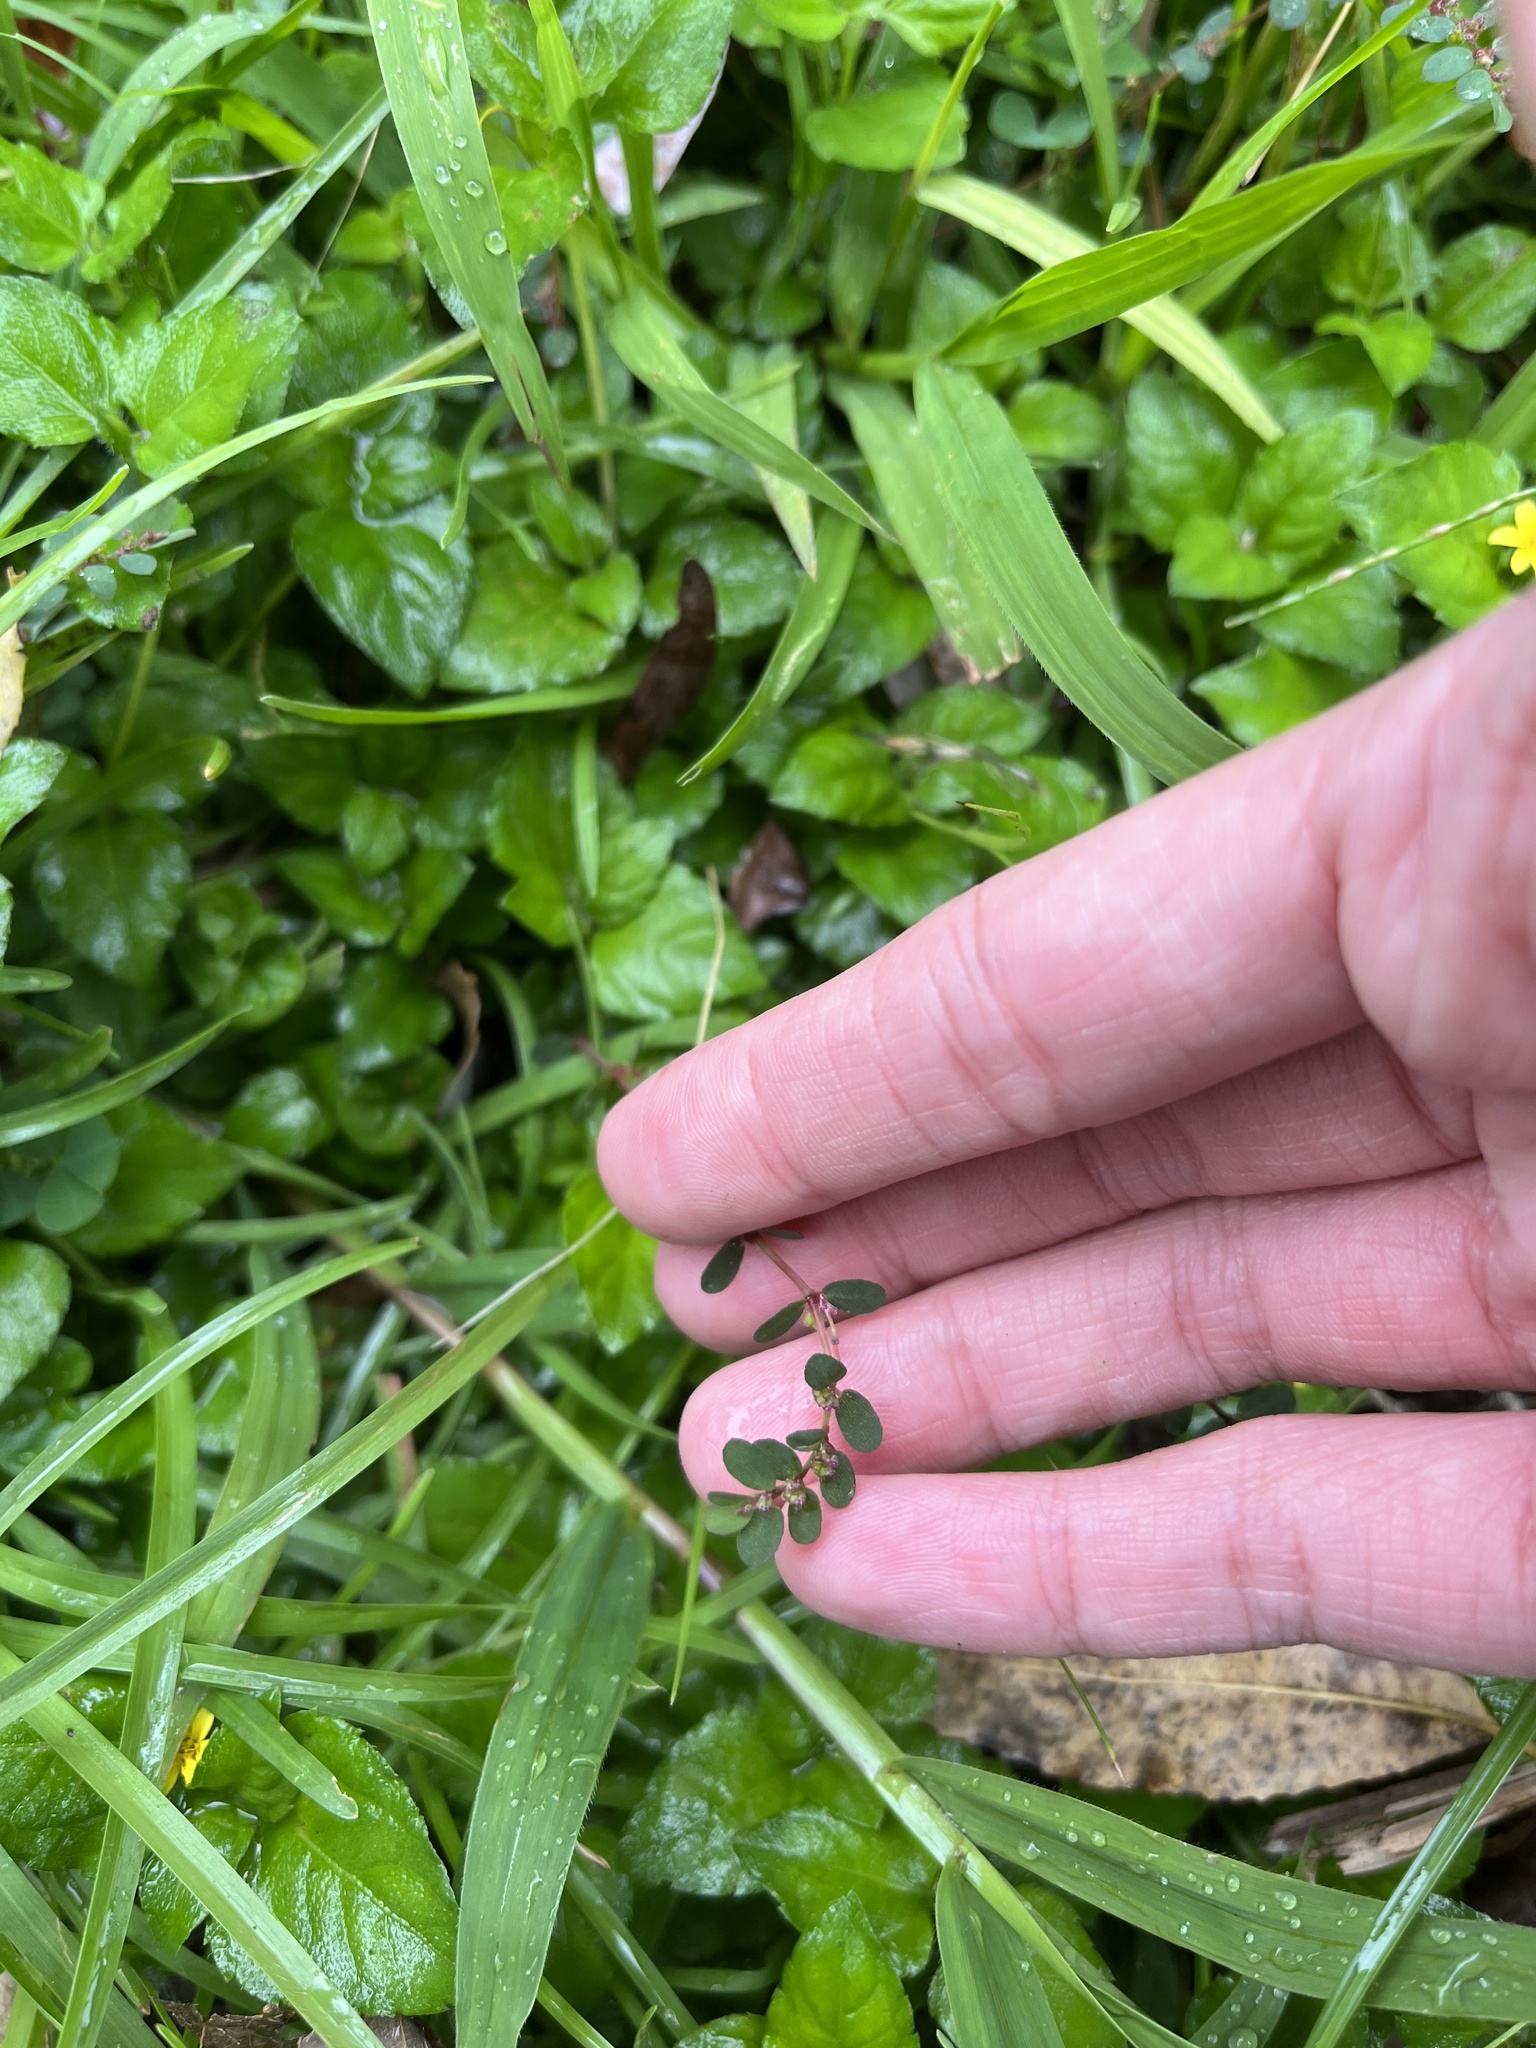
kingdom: Plantae
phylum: Tracheophyta
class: Magnoliopsida
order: Malpighiales
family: Euphorbiaceae
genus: Euphorbia
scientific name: Euphorbia prostrata
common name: Prostrate sandmat
